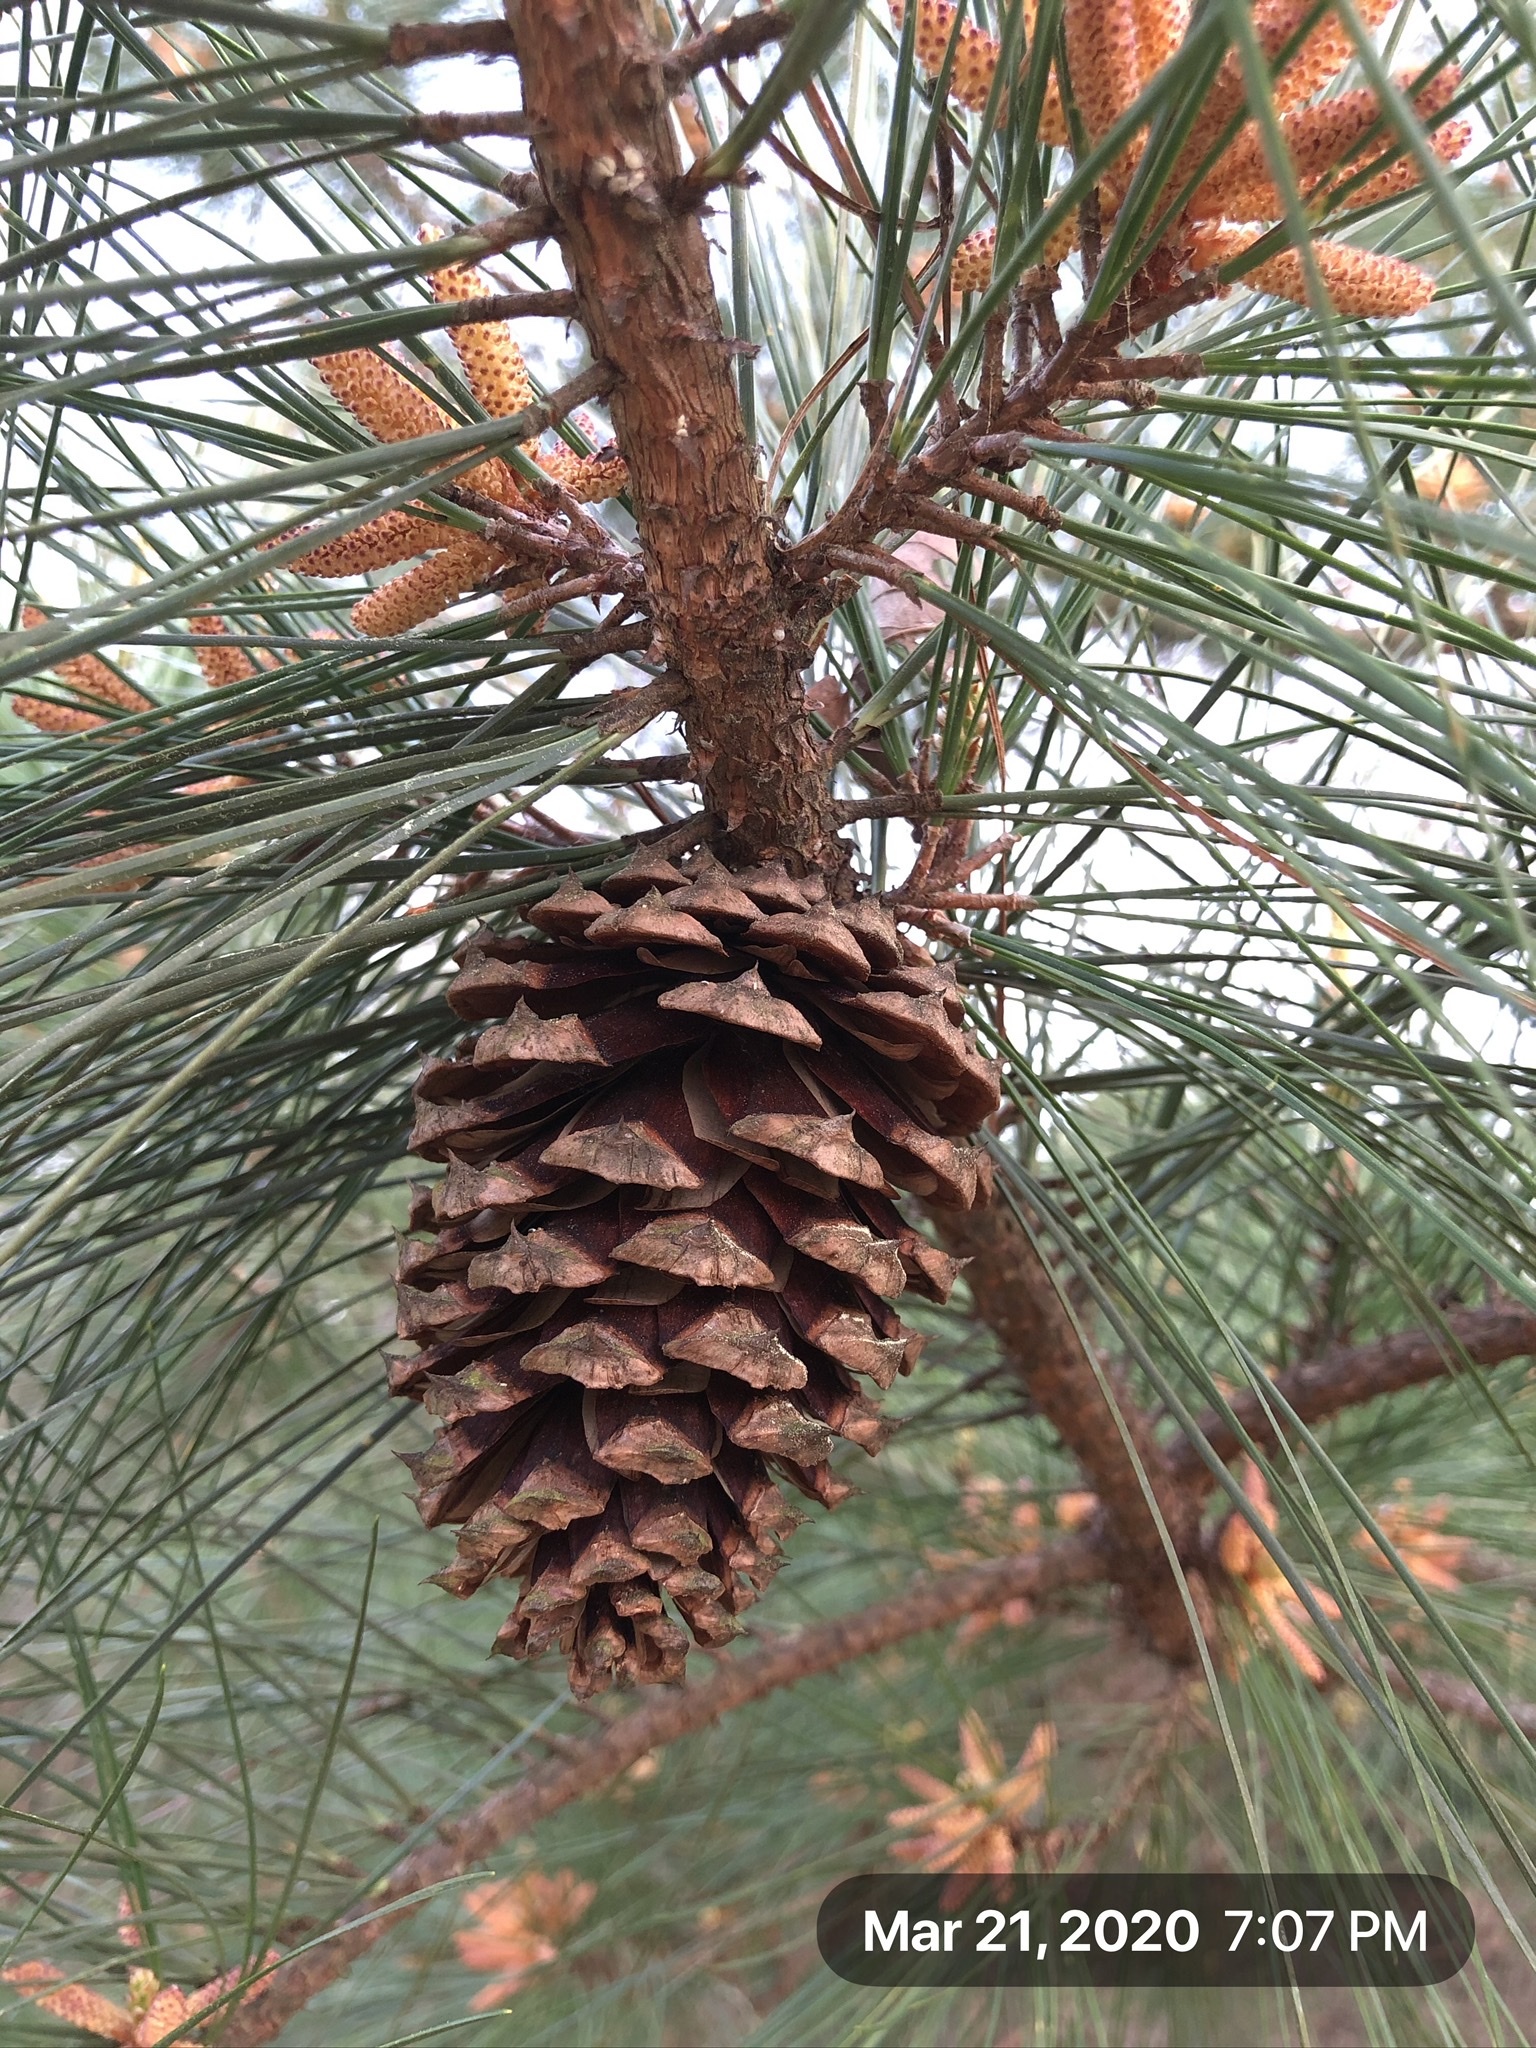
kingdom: Plantae
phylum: Tracheophyta
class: Pinopsida
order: Pinales
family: Pinaceae
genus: Pinus
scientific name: Pinus taeda
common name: Loblolly pine
